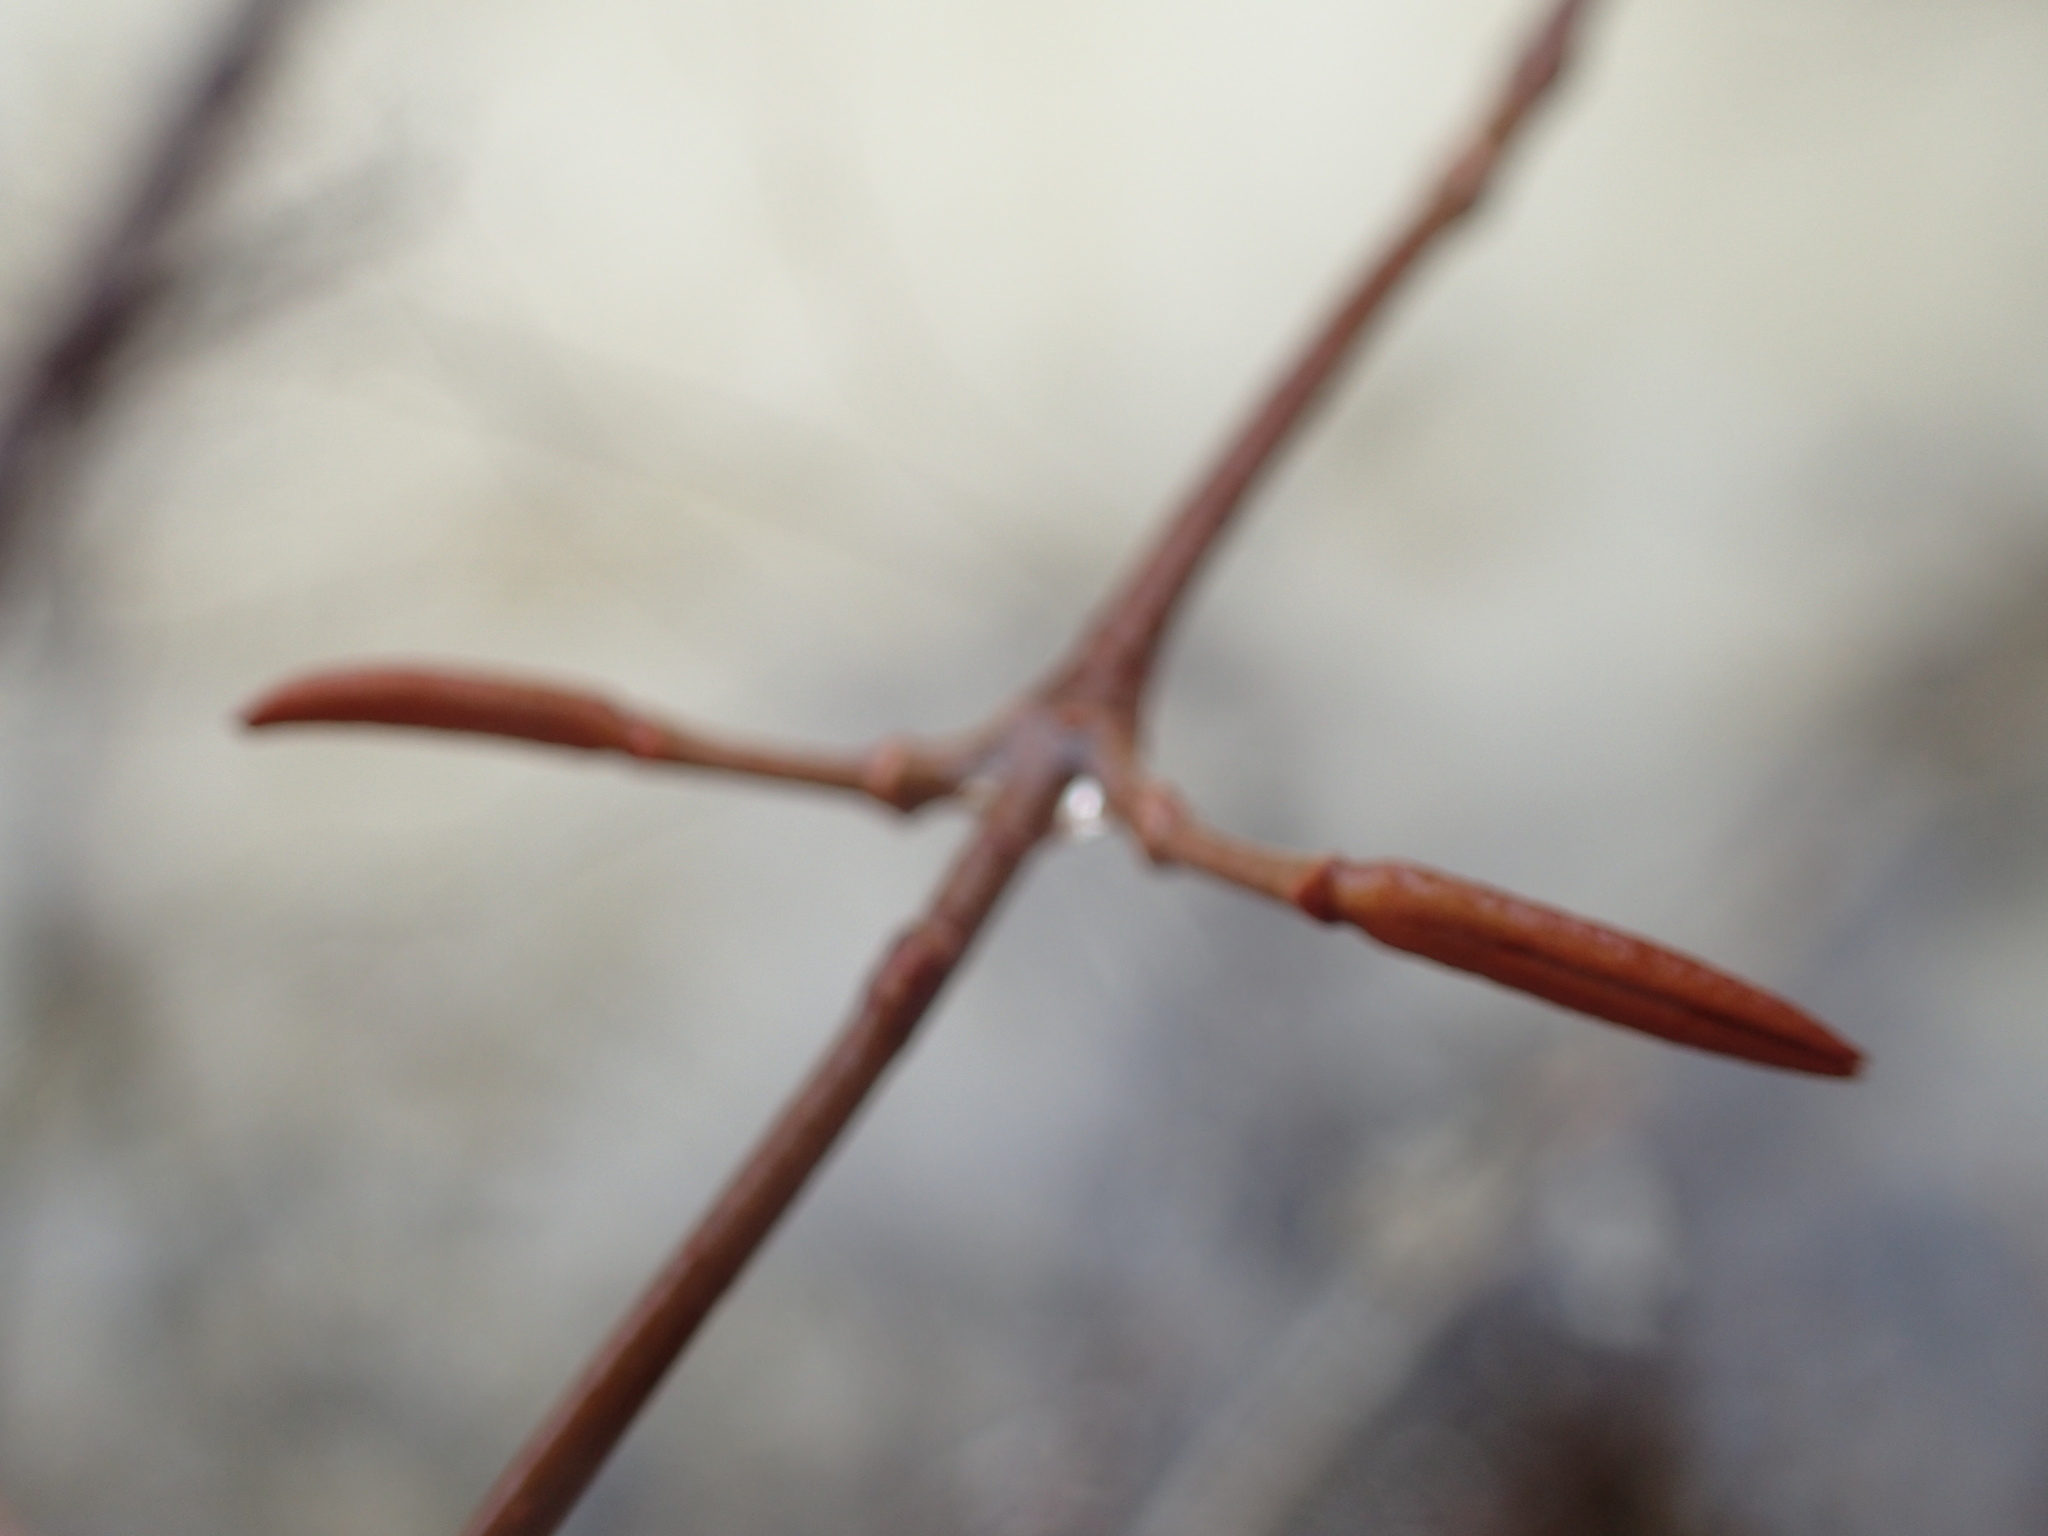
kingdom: Plantae
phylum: Tracheophyta
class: Magnoliopsida
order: Dipsacales
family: Viburnaceae
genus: Viburnum
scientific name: Viburnum cassinoides
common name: Swamp haw
